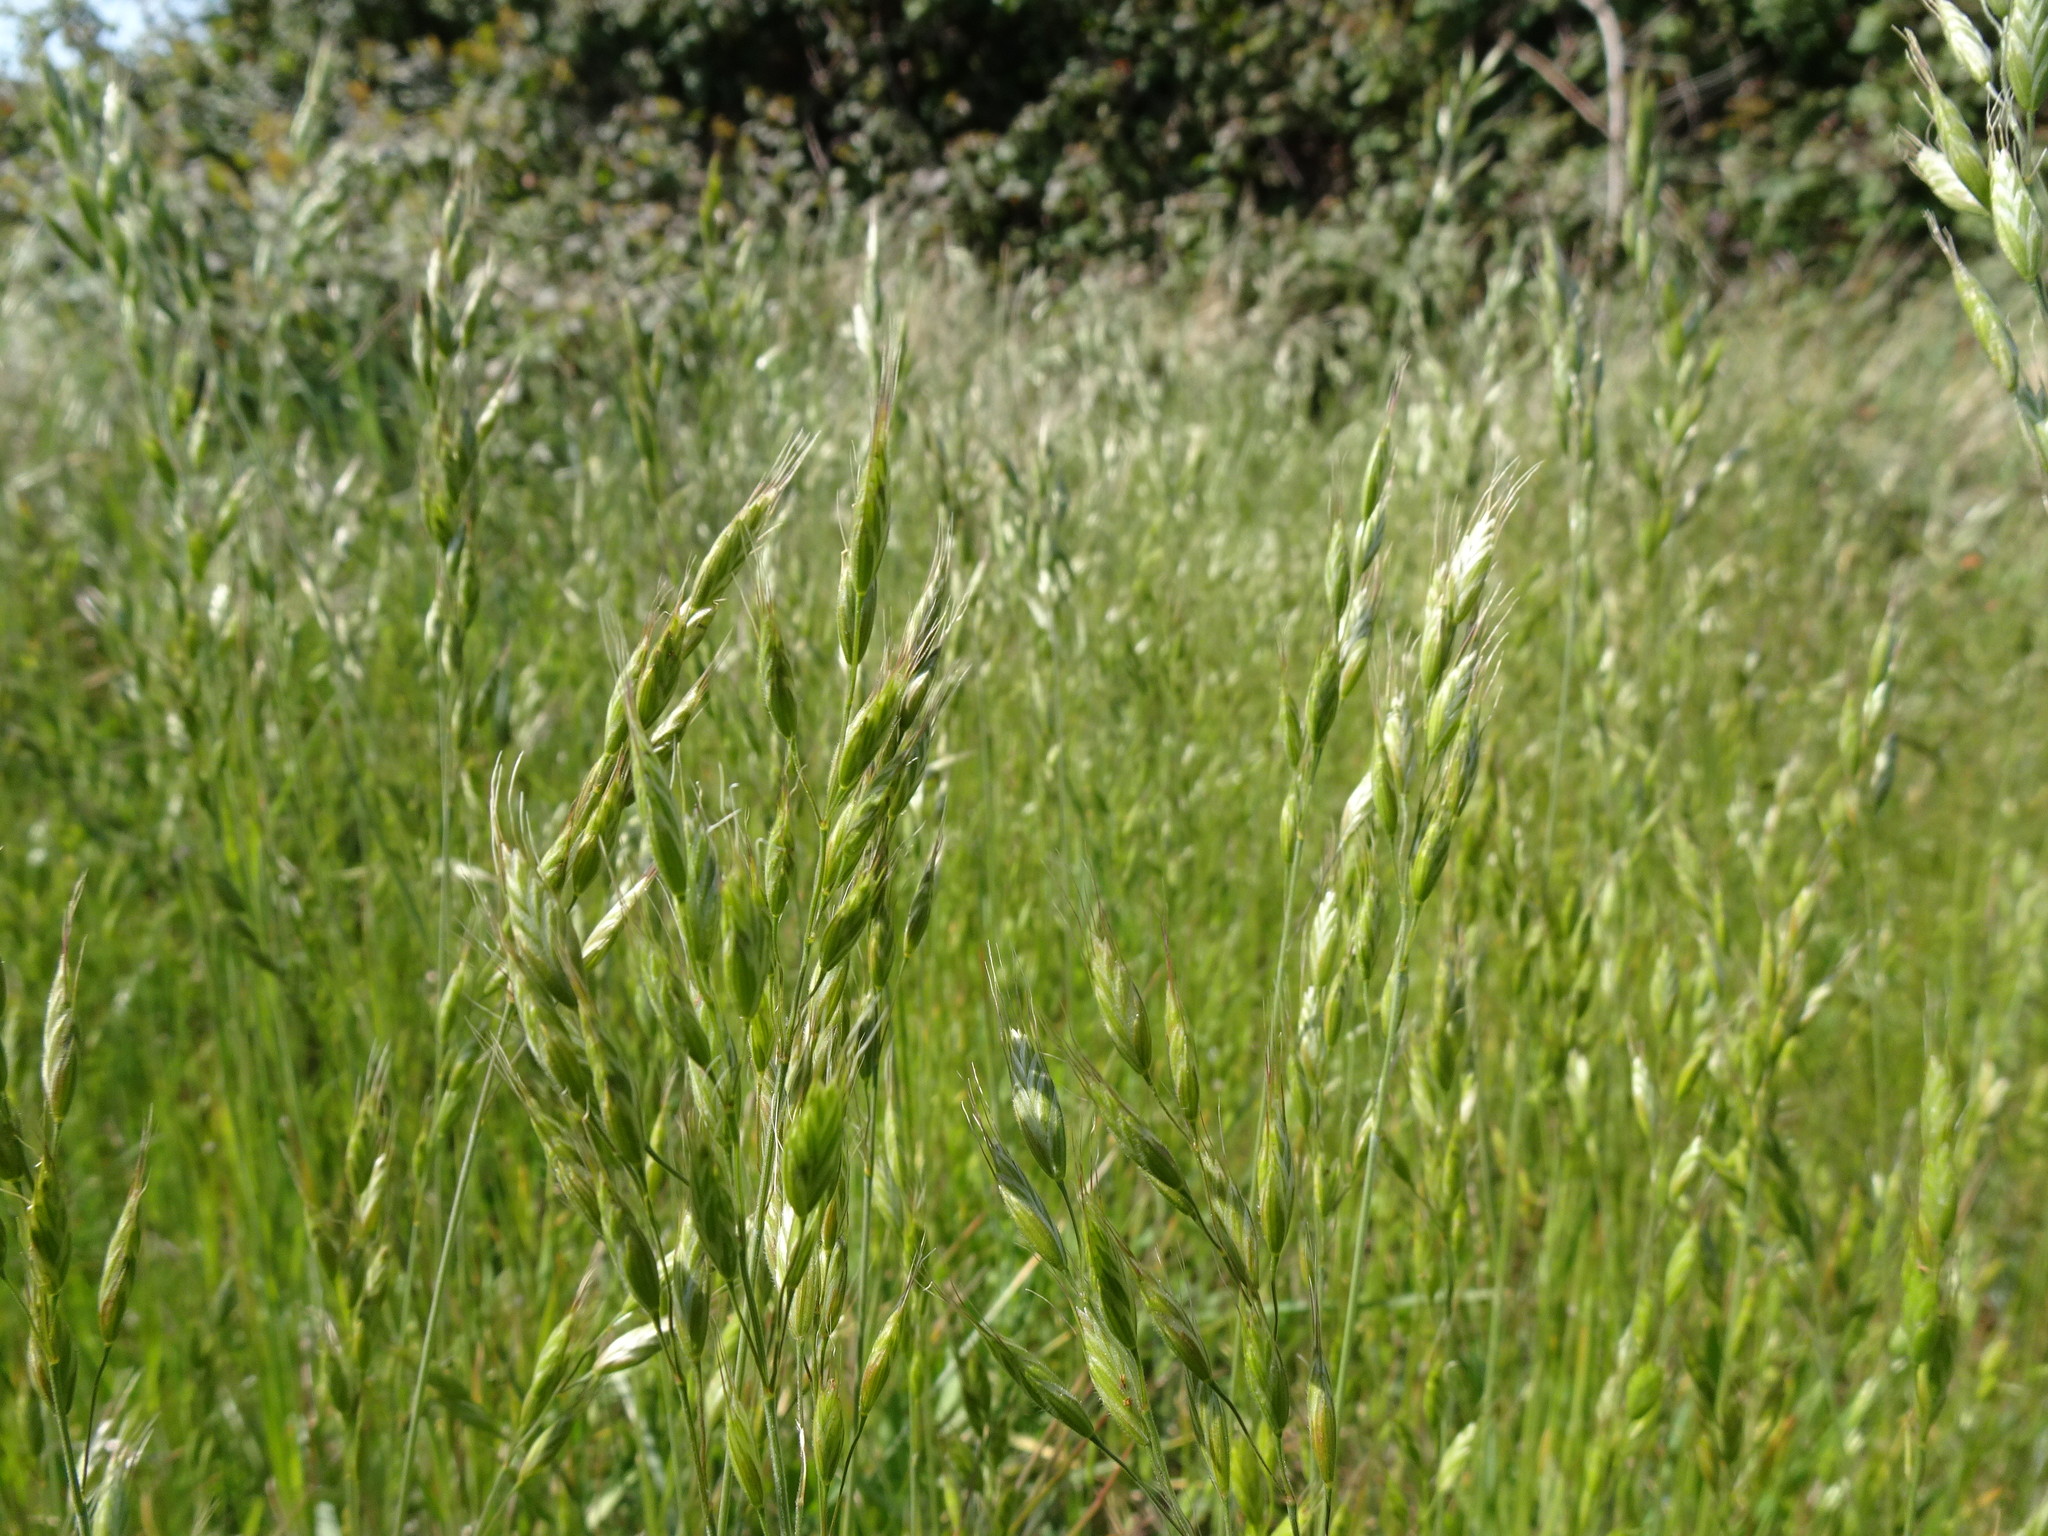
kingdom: Plantae
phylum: Tracheophyta
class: Liliopsida
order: Poales
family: Poaceae
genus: Bromus
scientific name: Bromus hordeaceus
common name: Soft brome
